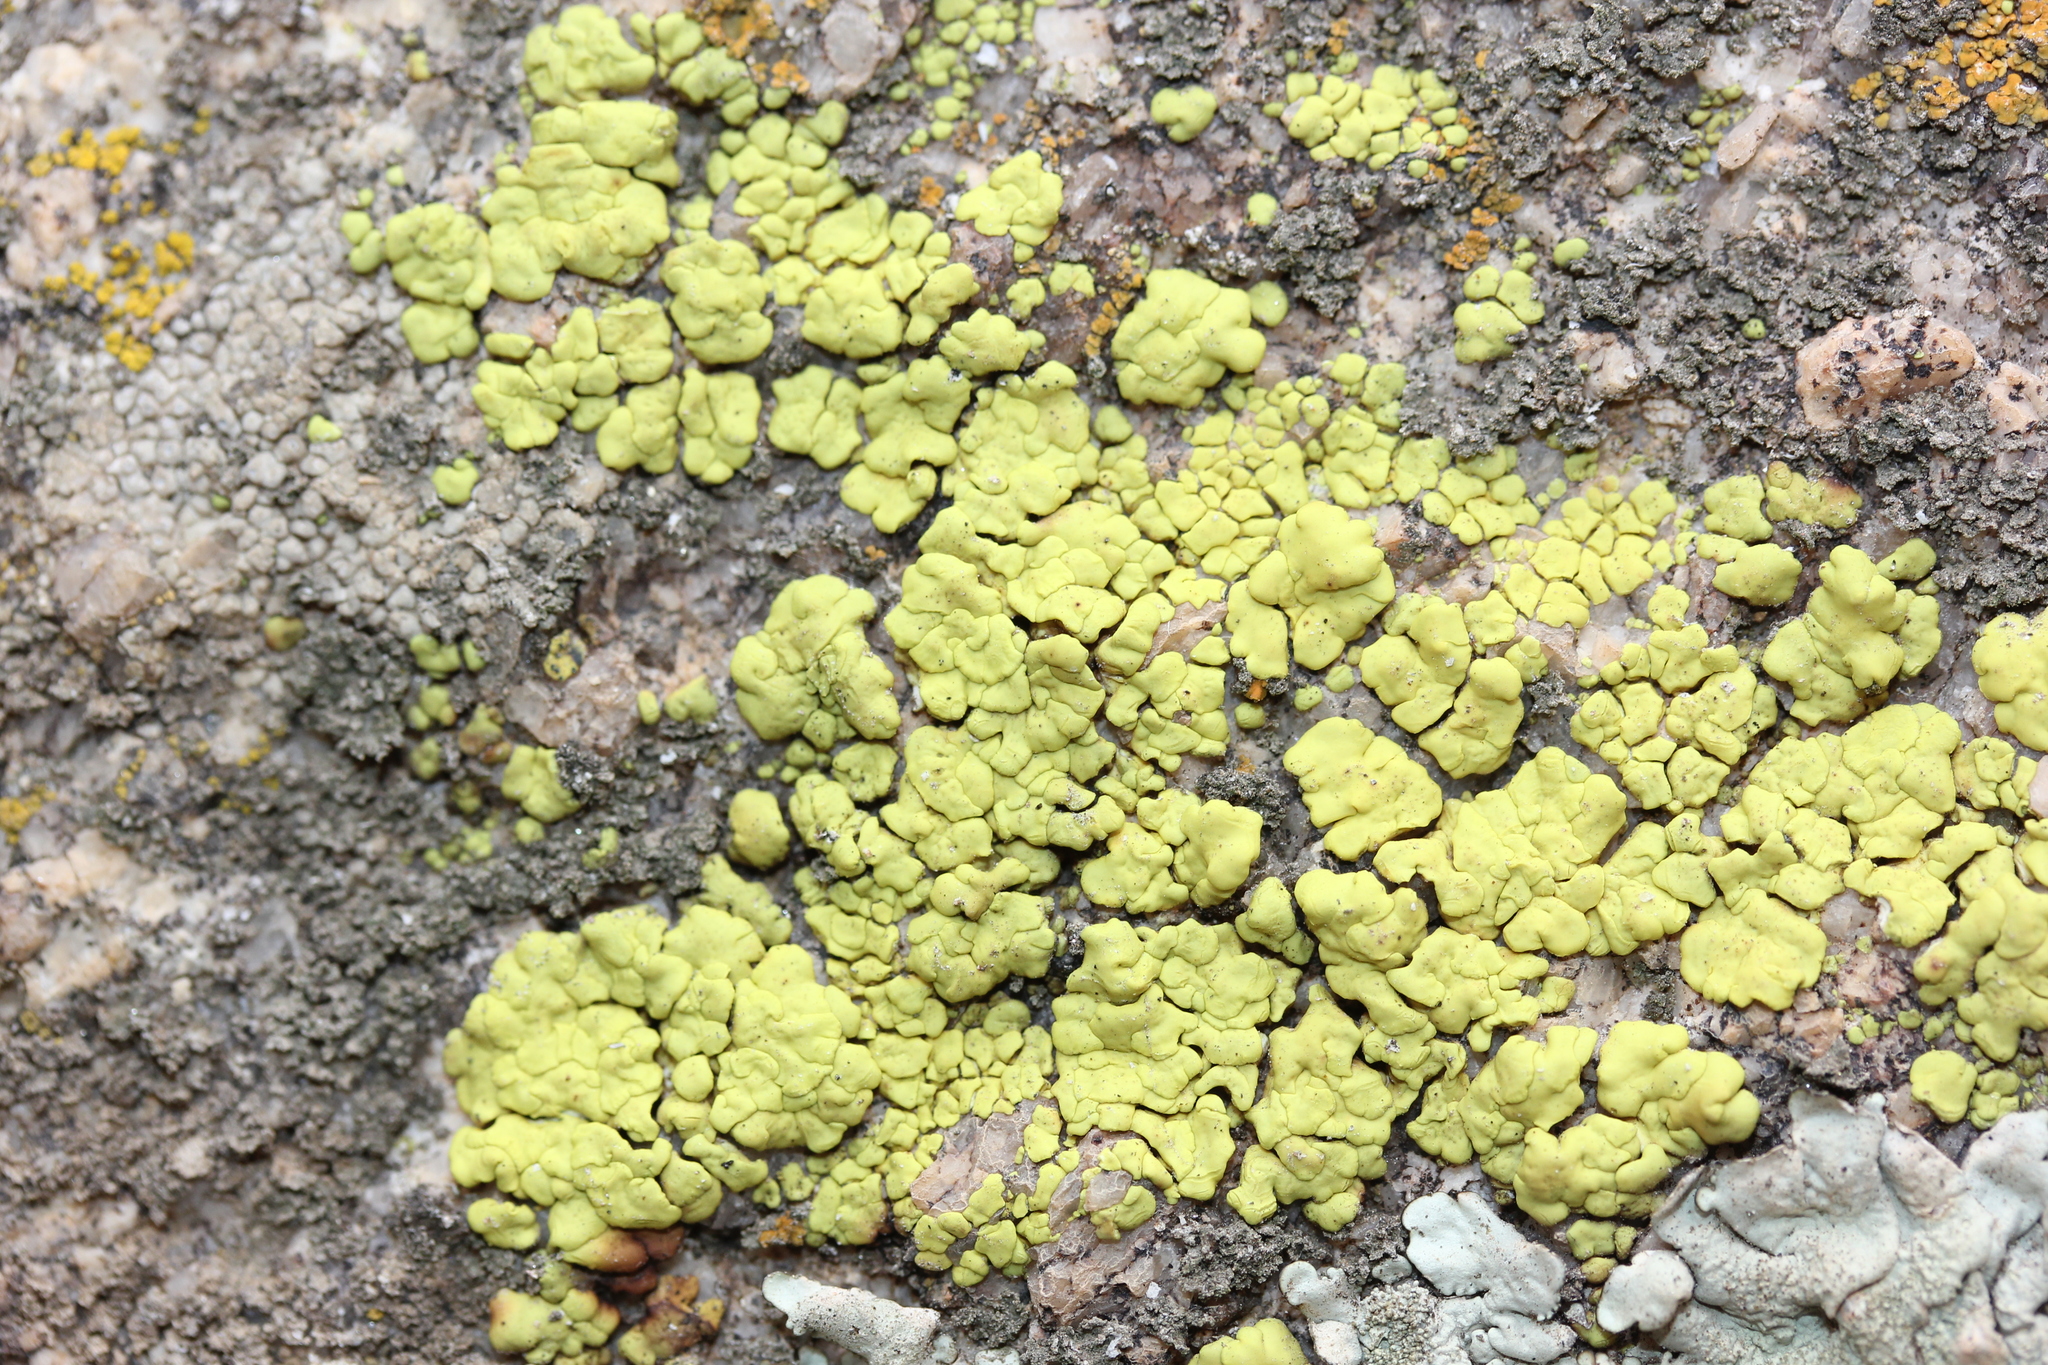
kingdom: Fungi
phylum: Ascomycota
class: Lecanoromycetes
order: Acarosporales
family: Acarosporaceae
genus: Acarospora
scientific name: Acarospora socialis
